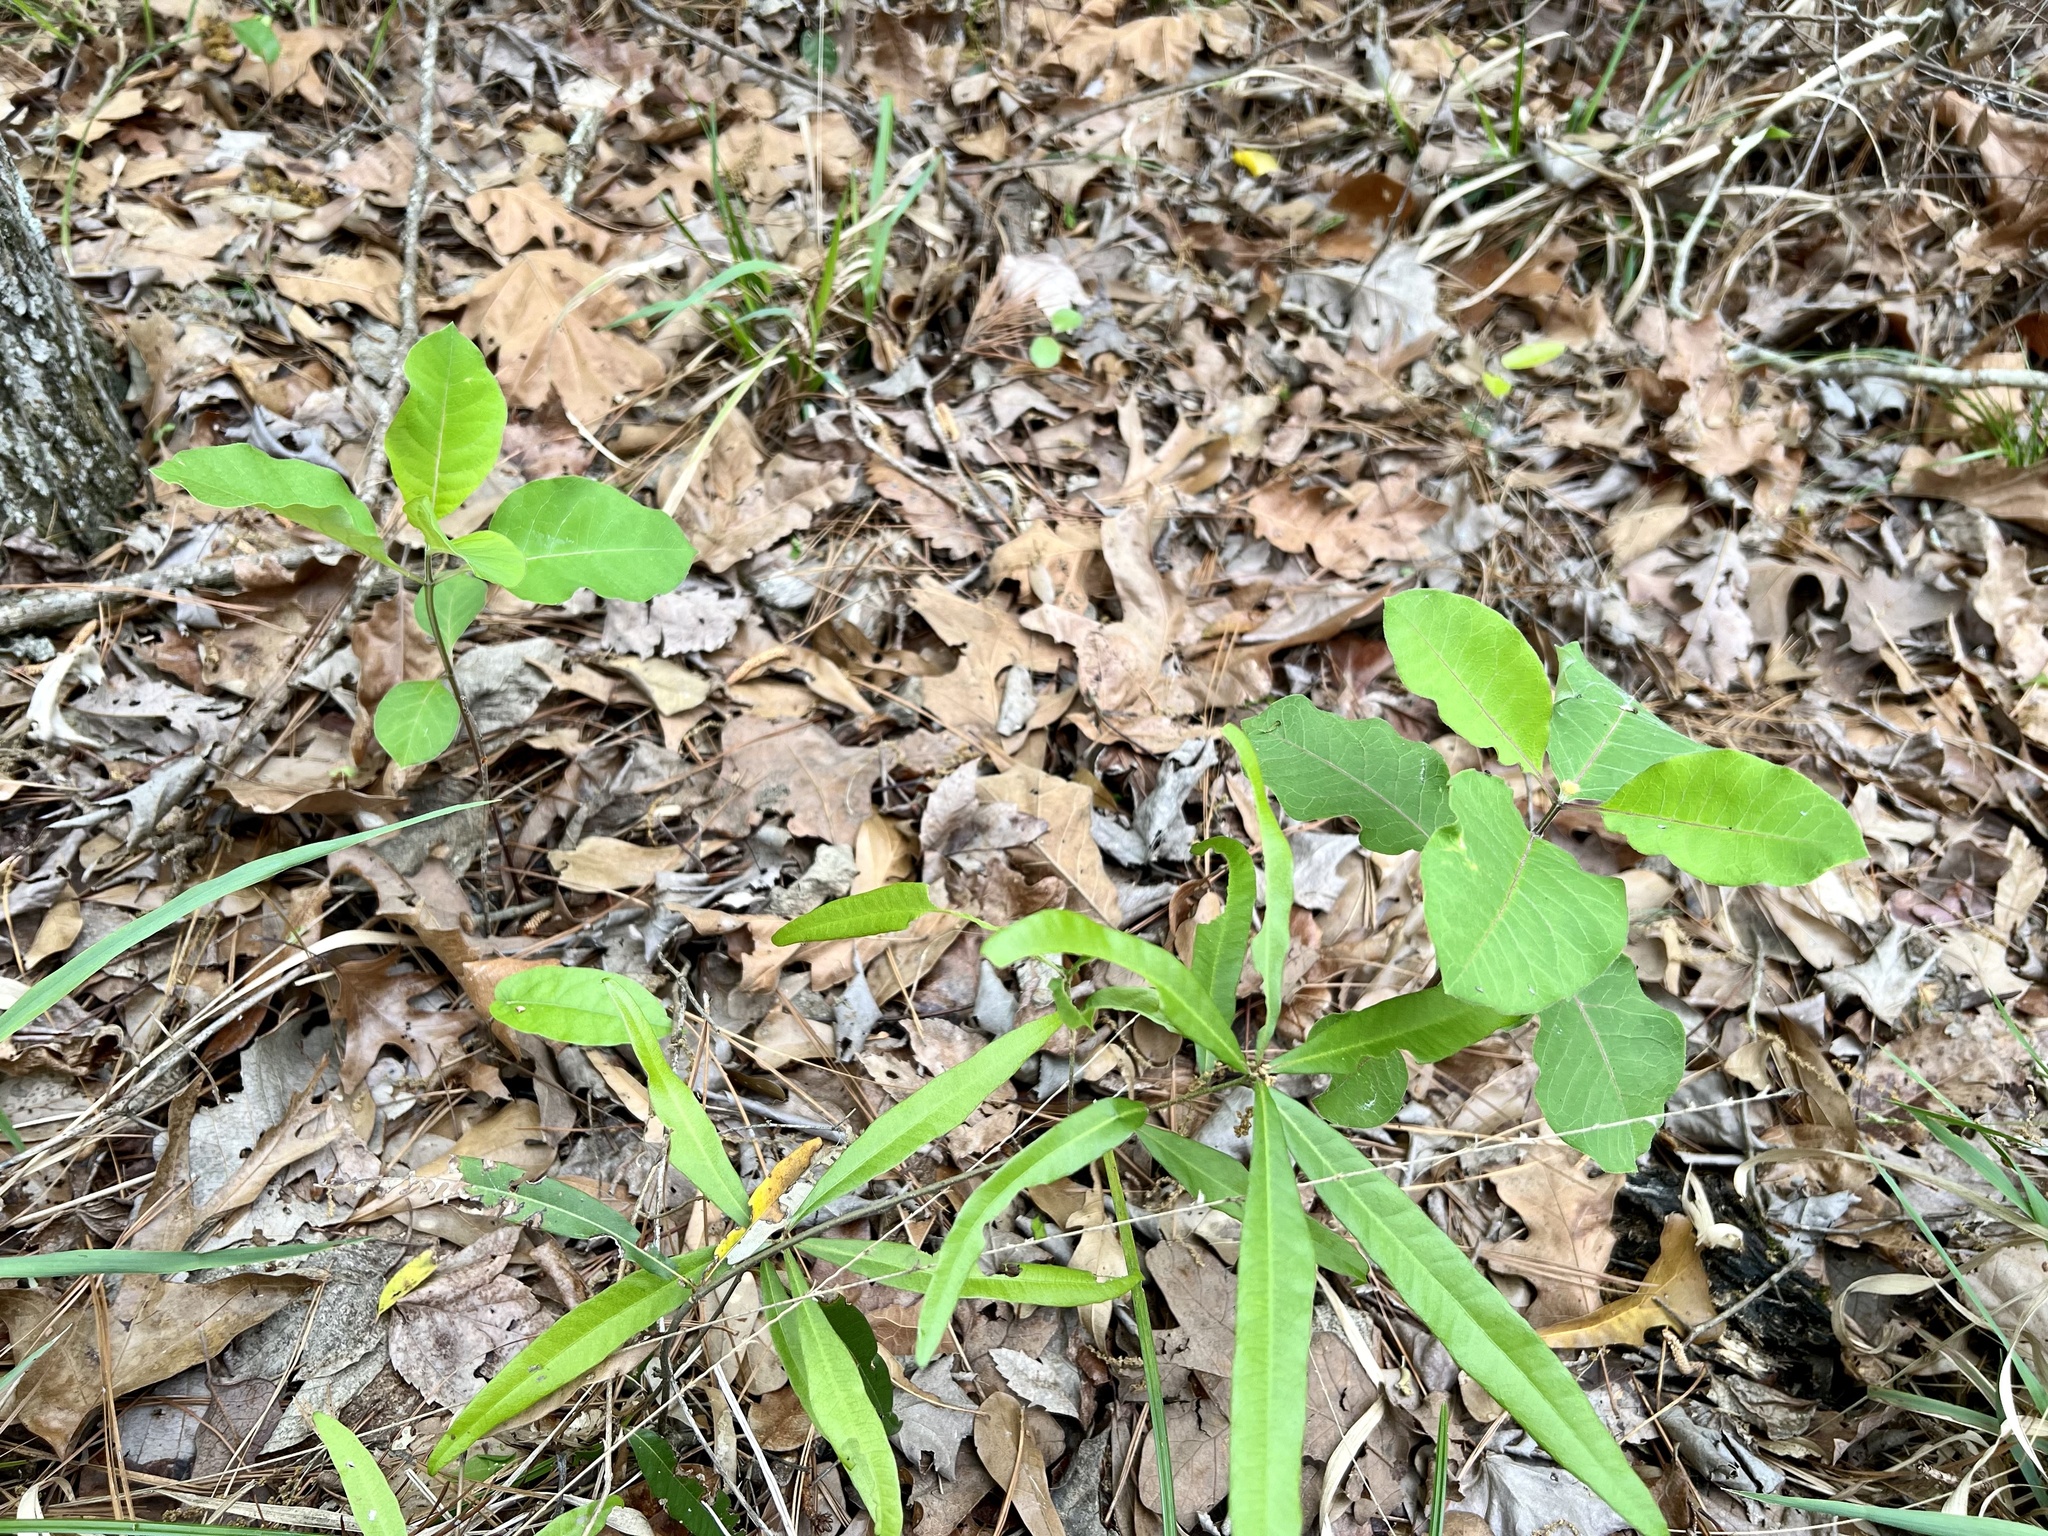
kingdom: Plantae
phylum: Tracheophyta
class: Magnoliopsida
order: Gentianales
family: Apocynaceae
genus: Asclepias
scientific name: Asclepias variegata
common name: Variegated milkweed
